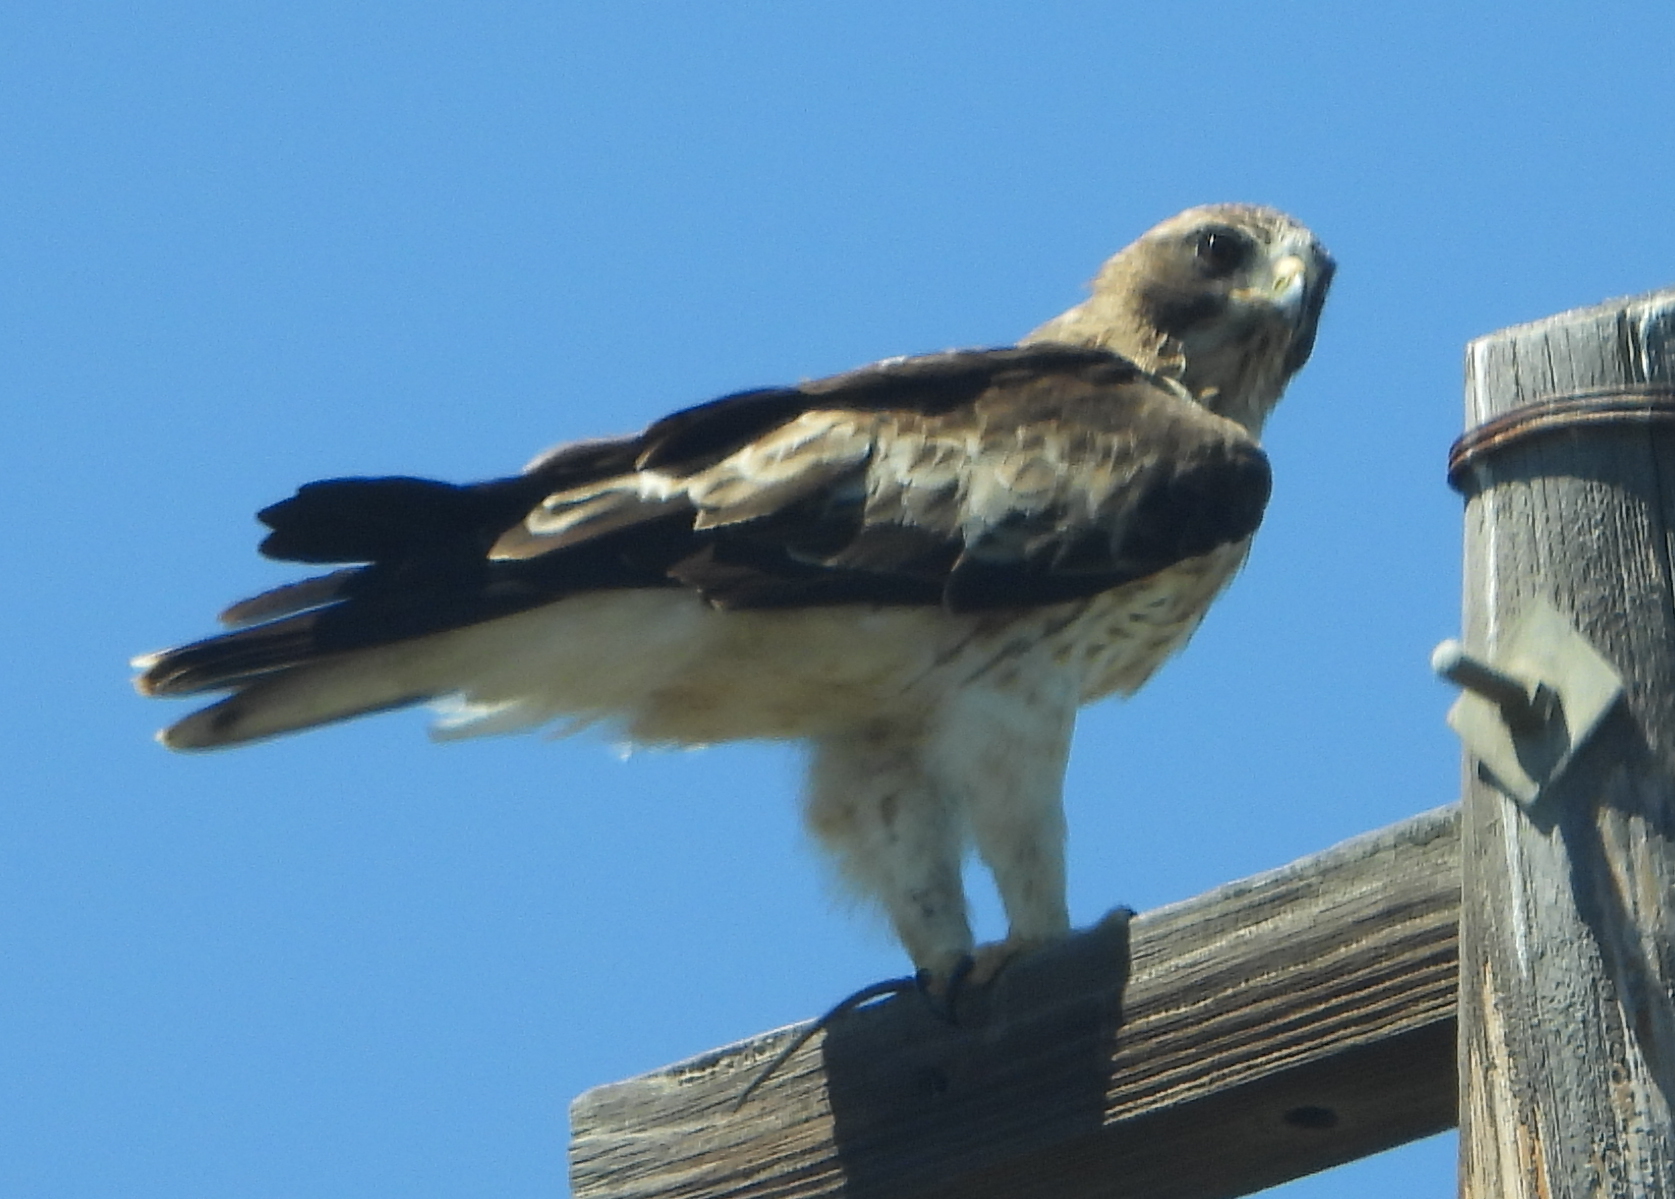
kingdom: Animalia
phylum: Chordata
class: Aves
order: Accipitriformes
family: Accipitridae
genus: Hieraaetus
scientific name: Hieraaetus pennatus
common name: Booted eagle
